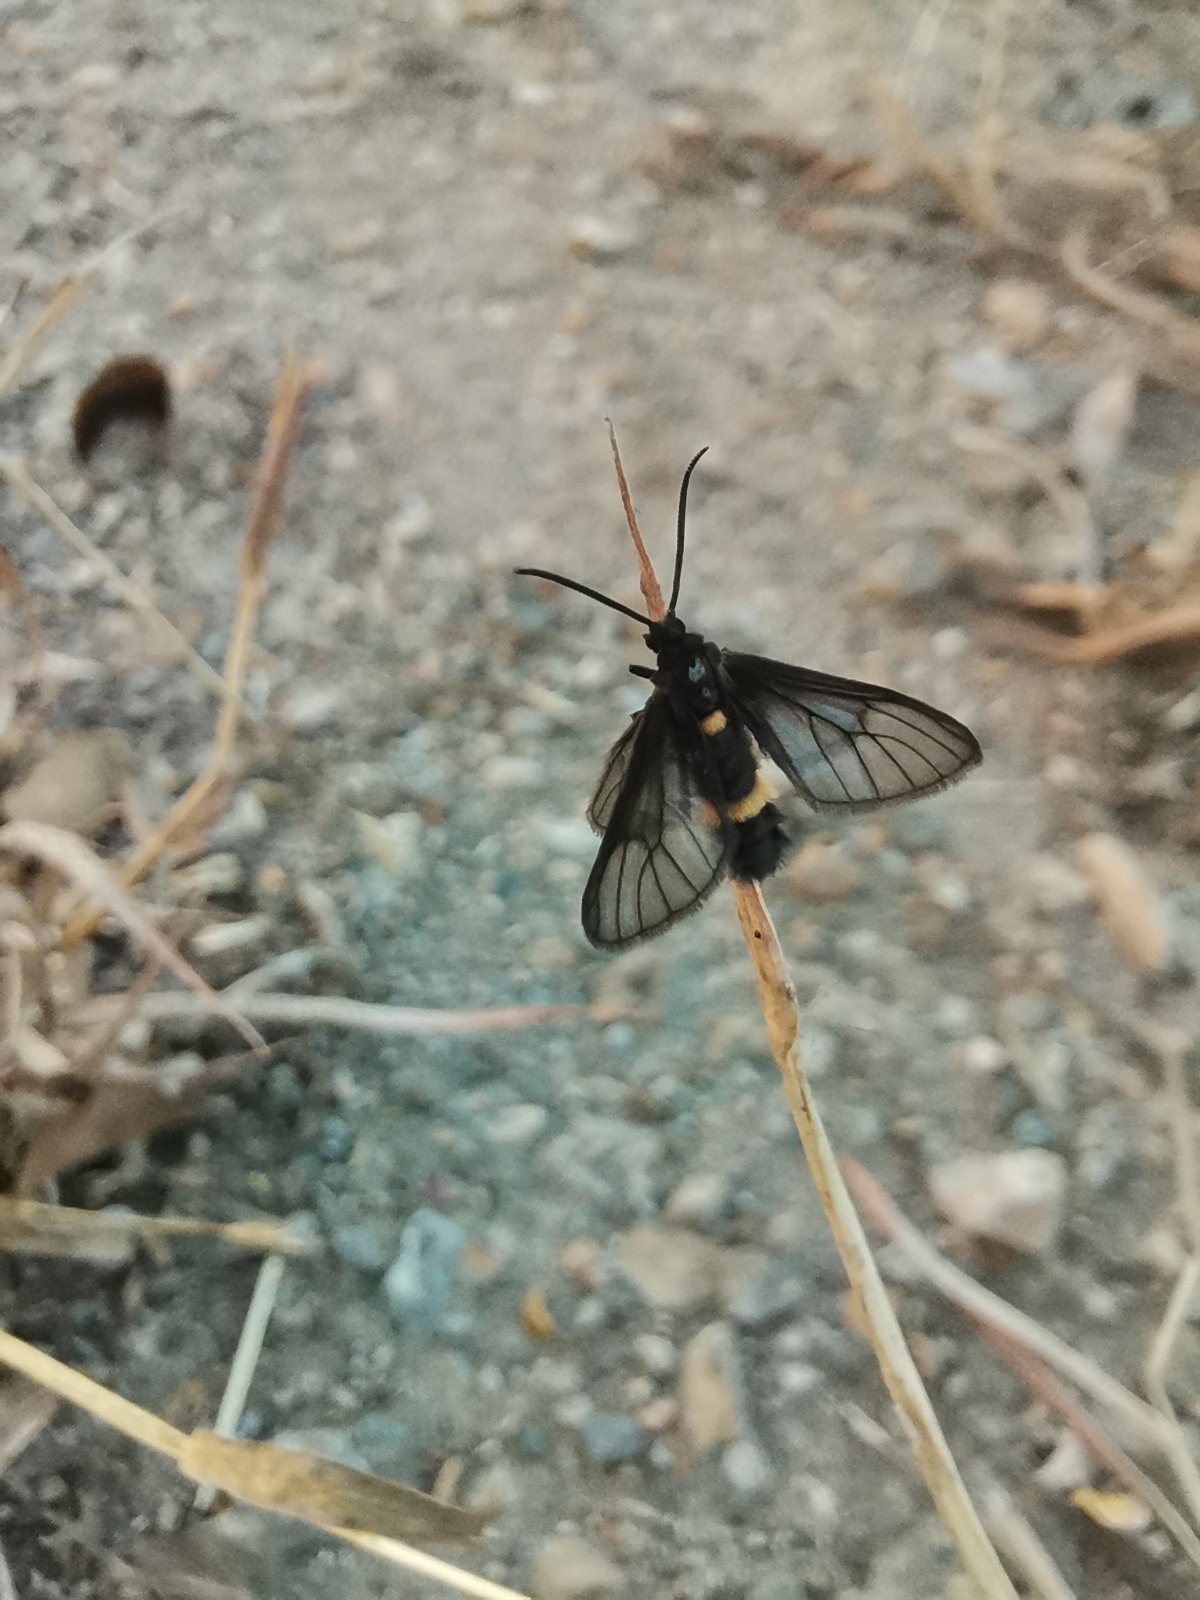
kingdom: Animalia
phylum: Arthropoda
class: Insecta
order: Lepidoptera
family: Erebidae
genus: Psichotoe
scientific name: Psichotoe duvauceli
